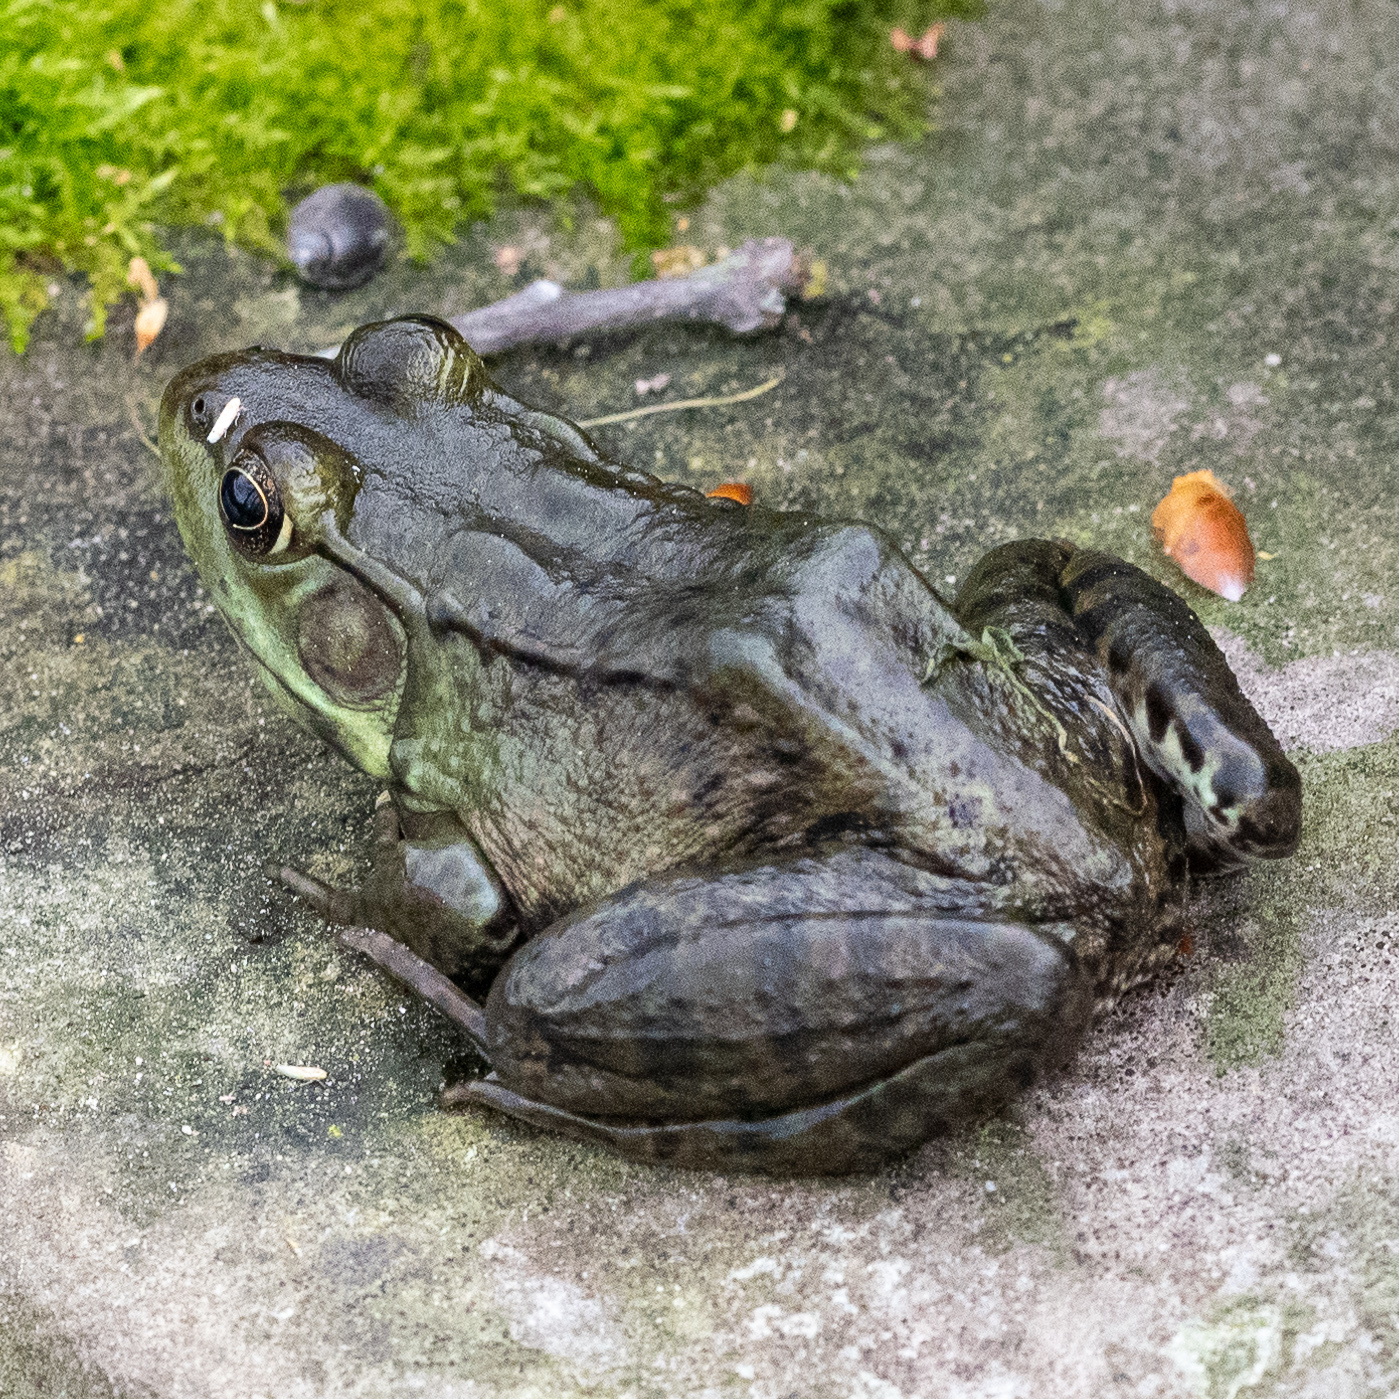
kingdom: Animalia
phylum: Chordata
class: Amphibia
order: Anura
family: Ranidae
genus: Lithobates
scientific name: Lithobates clamitans
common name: Green frog
